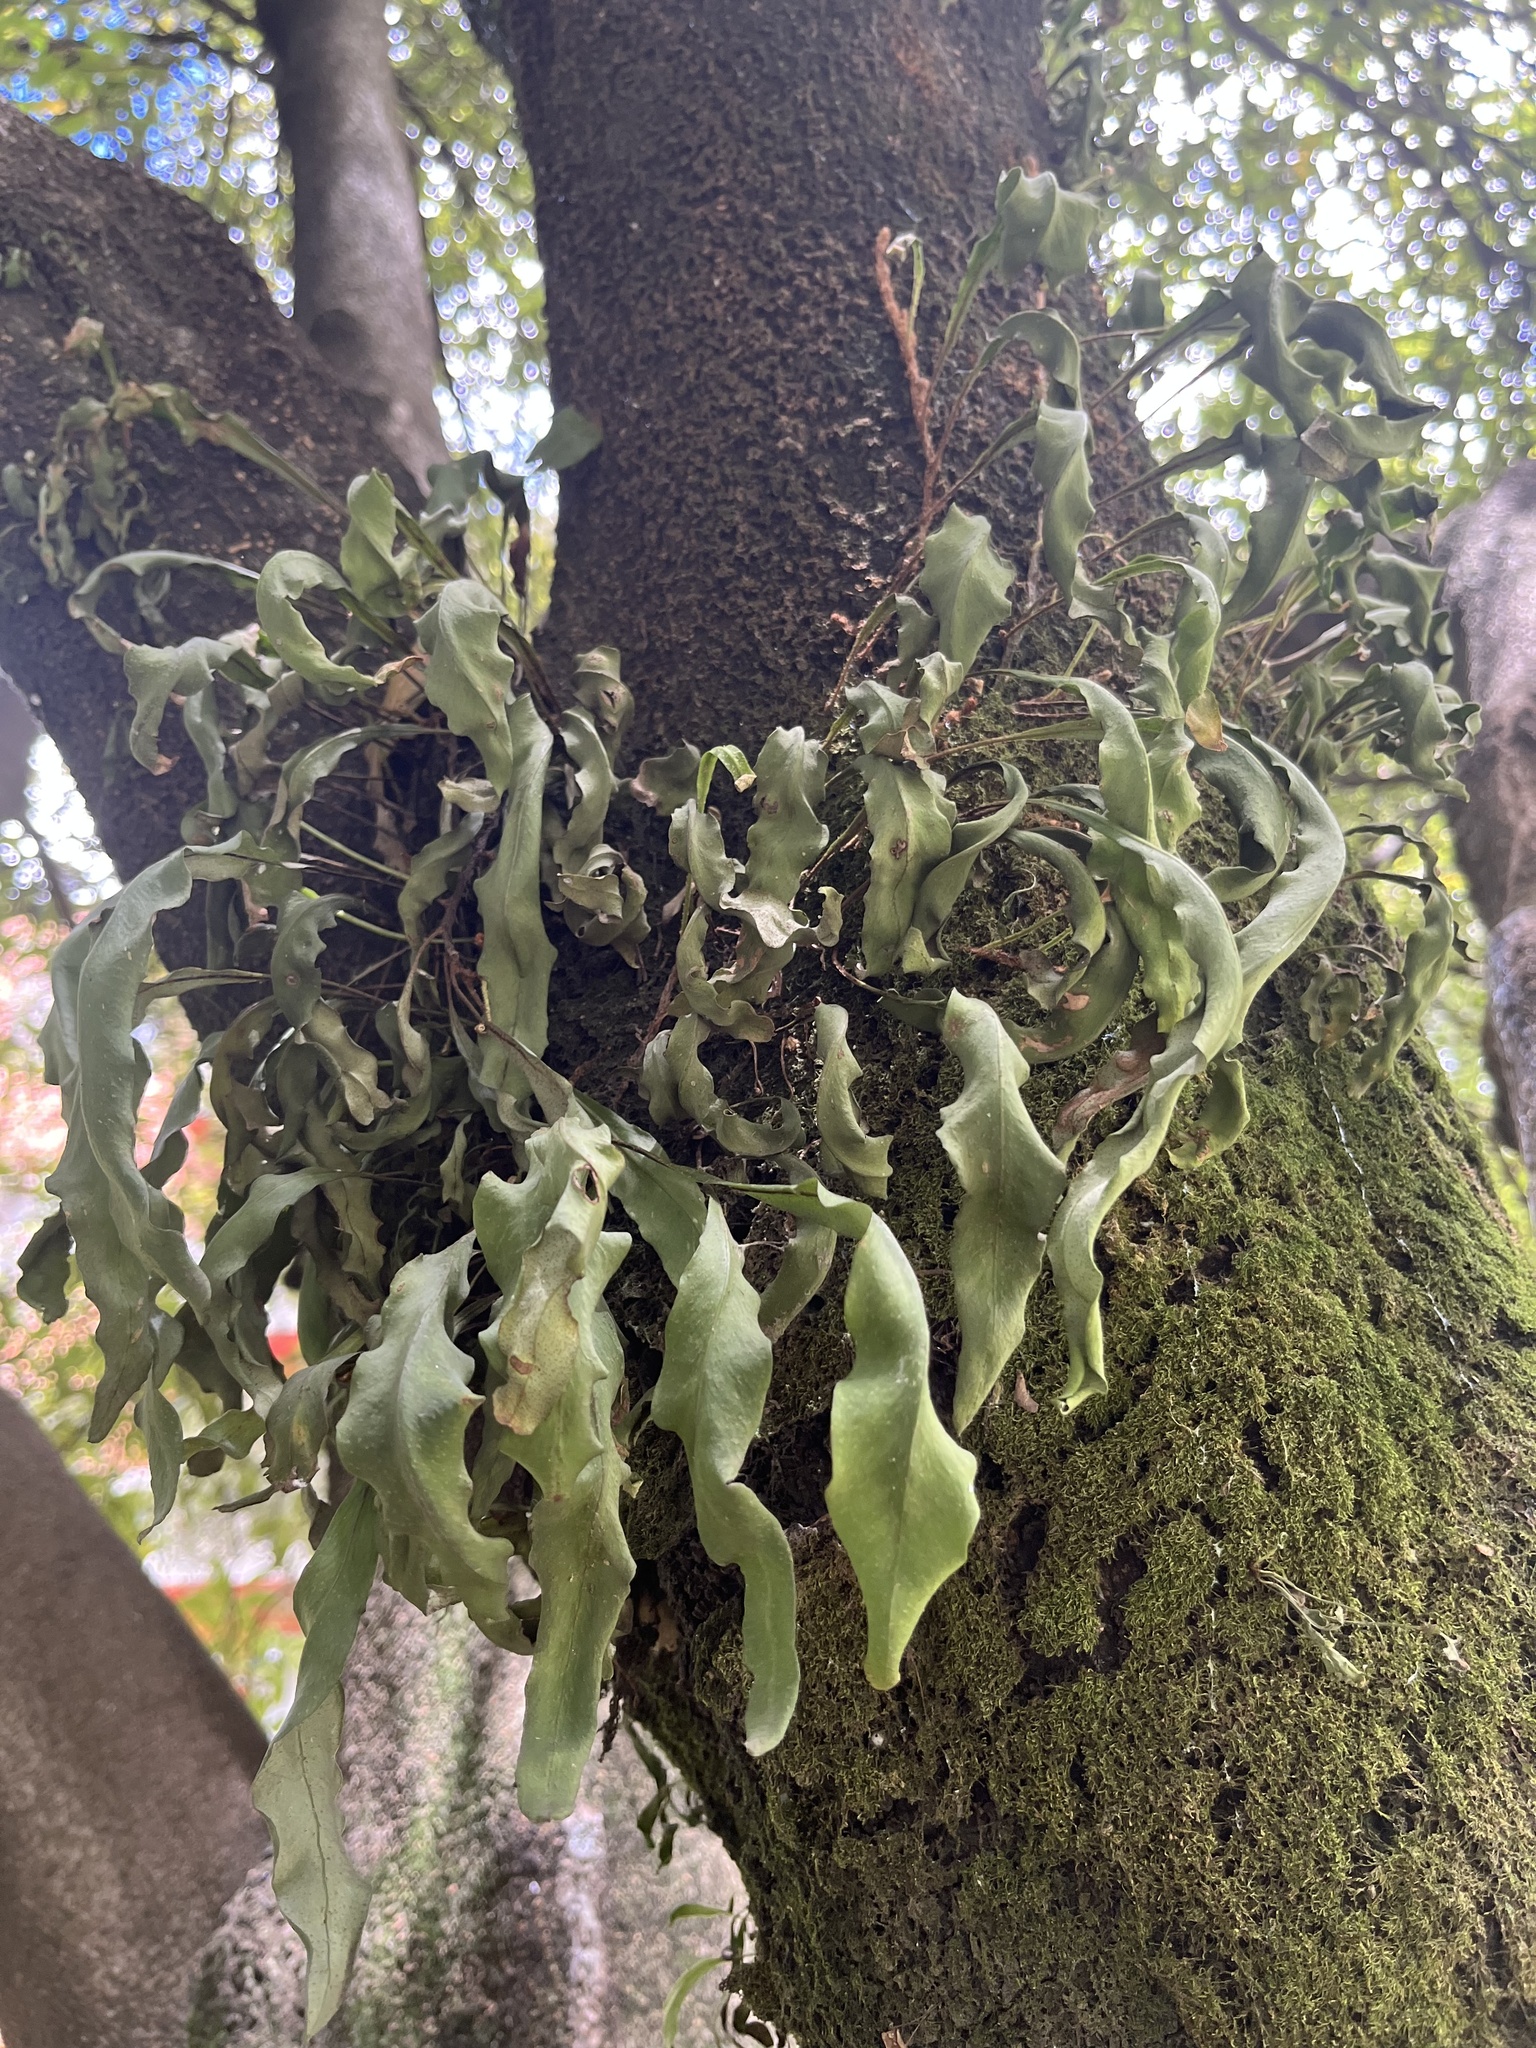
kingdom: Plantae
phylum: Tracheophyta
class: Polypodiopsida
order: Polypodiales
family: Polypodiaceae
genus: Pleopeltis
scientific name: Pleopeltis macrocarpa
